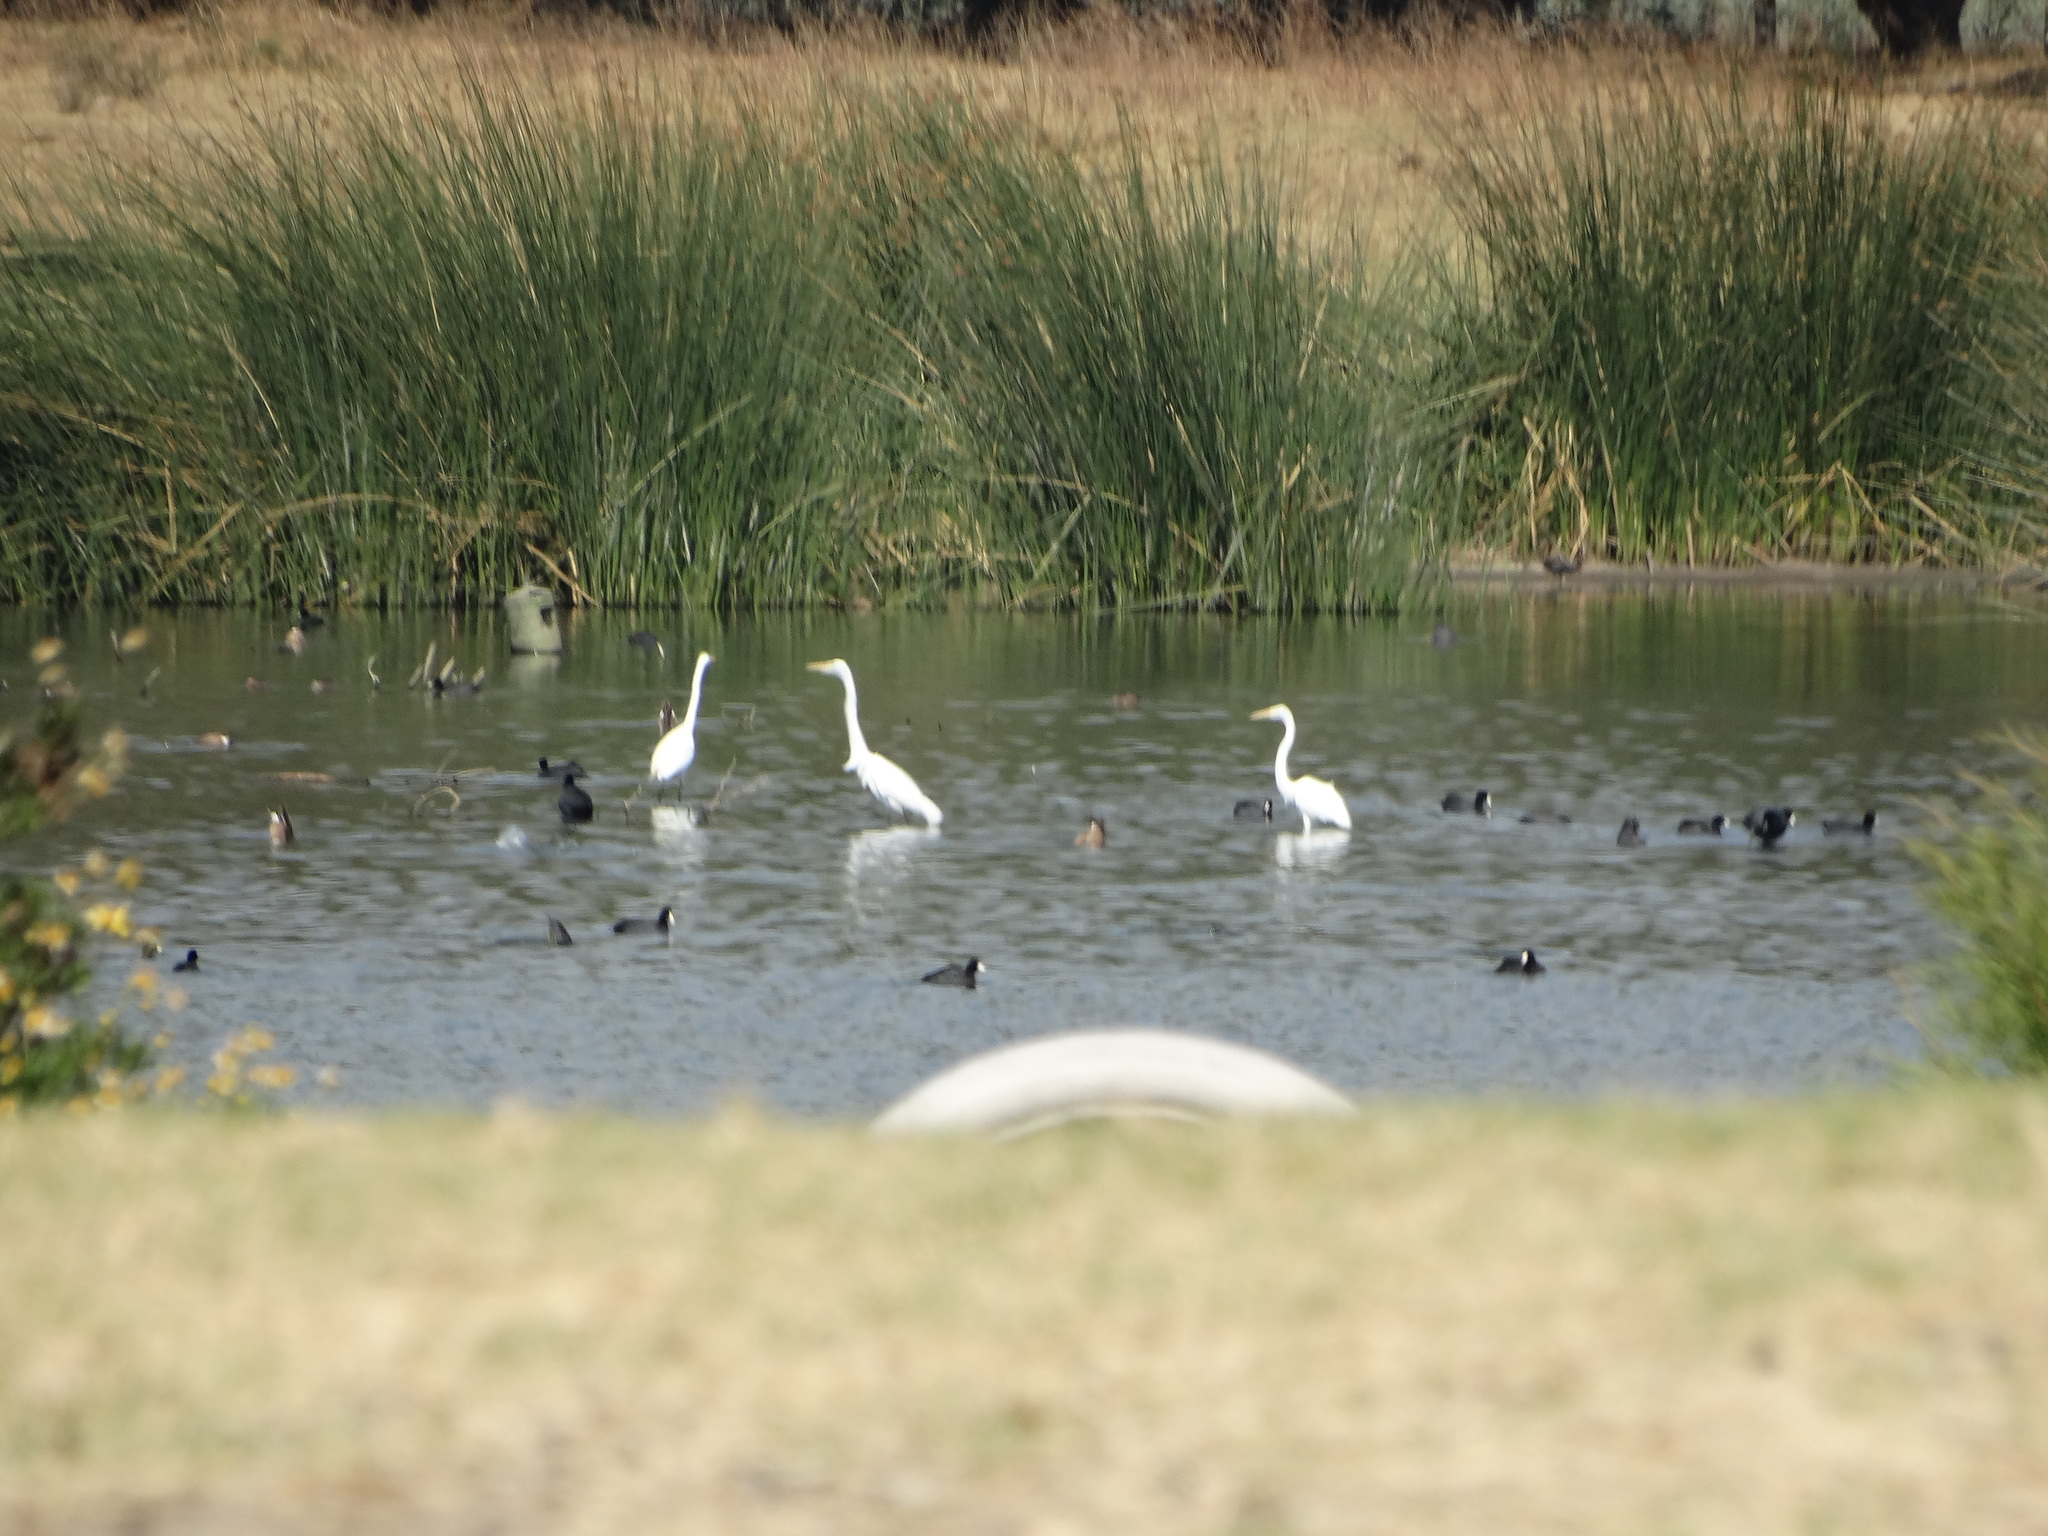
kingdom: Animalia
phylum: Chordata
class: Aves
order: Pelecaniformes
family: Ardeidae
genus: Ardea
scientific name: Ardea alba
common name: Great egret
